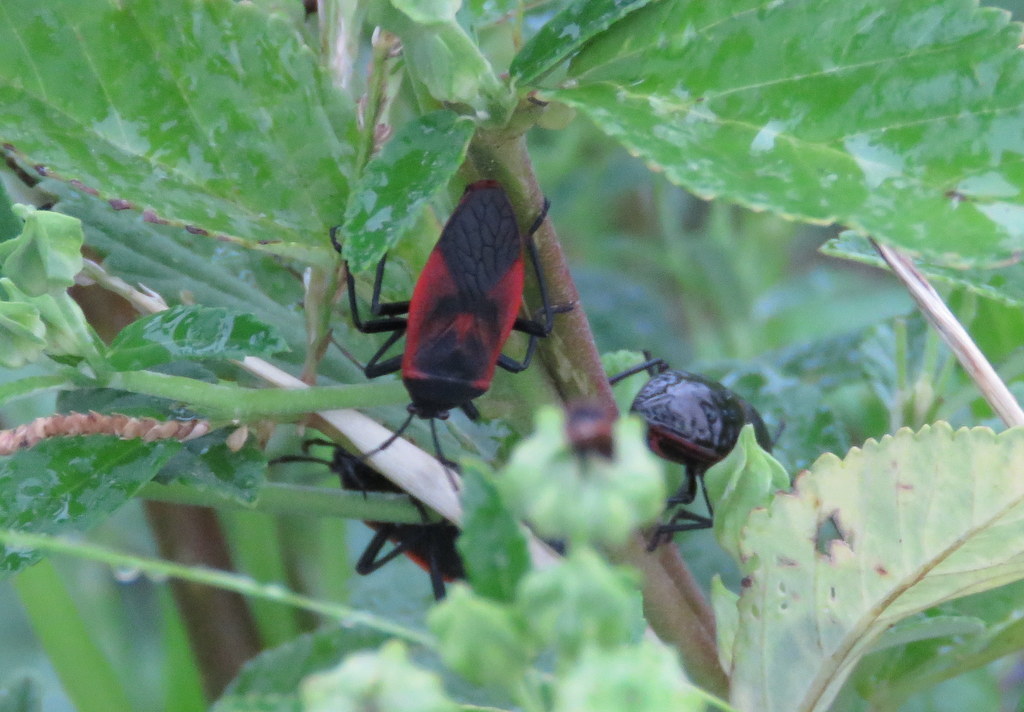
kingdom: Animalia
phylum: Arthropoda
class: Insecta
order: Hemiptera
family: Largidae
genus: Largus
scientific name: Largus rufipennis
